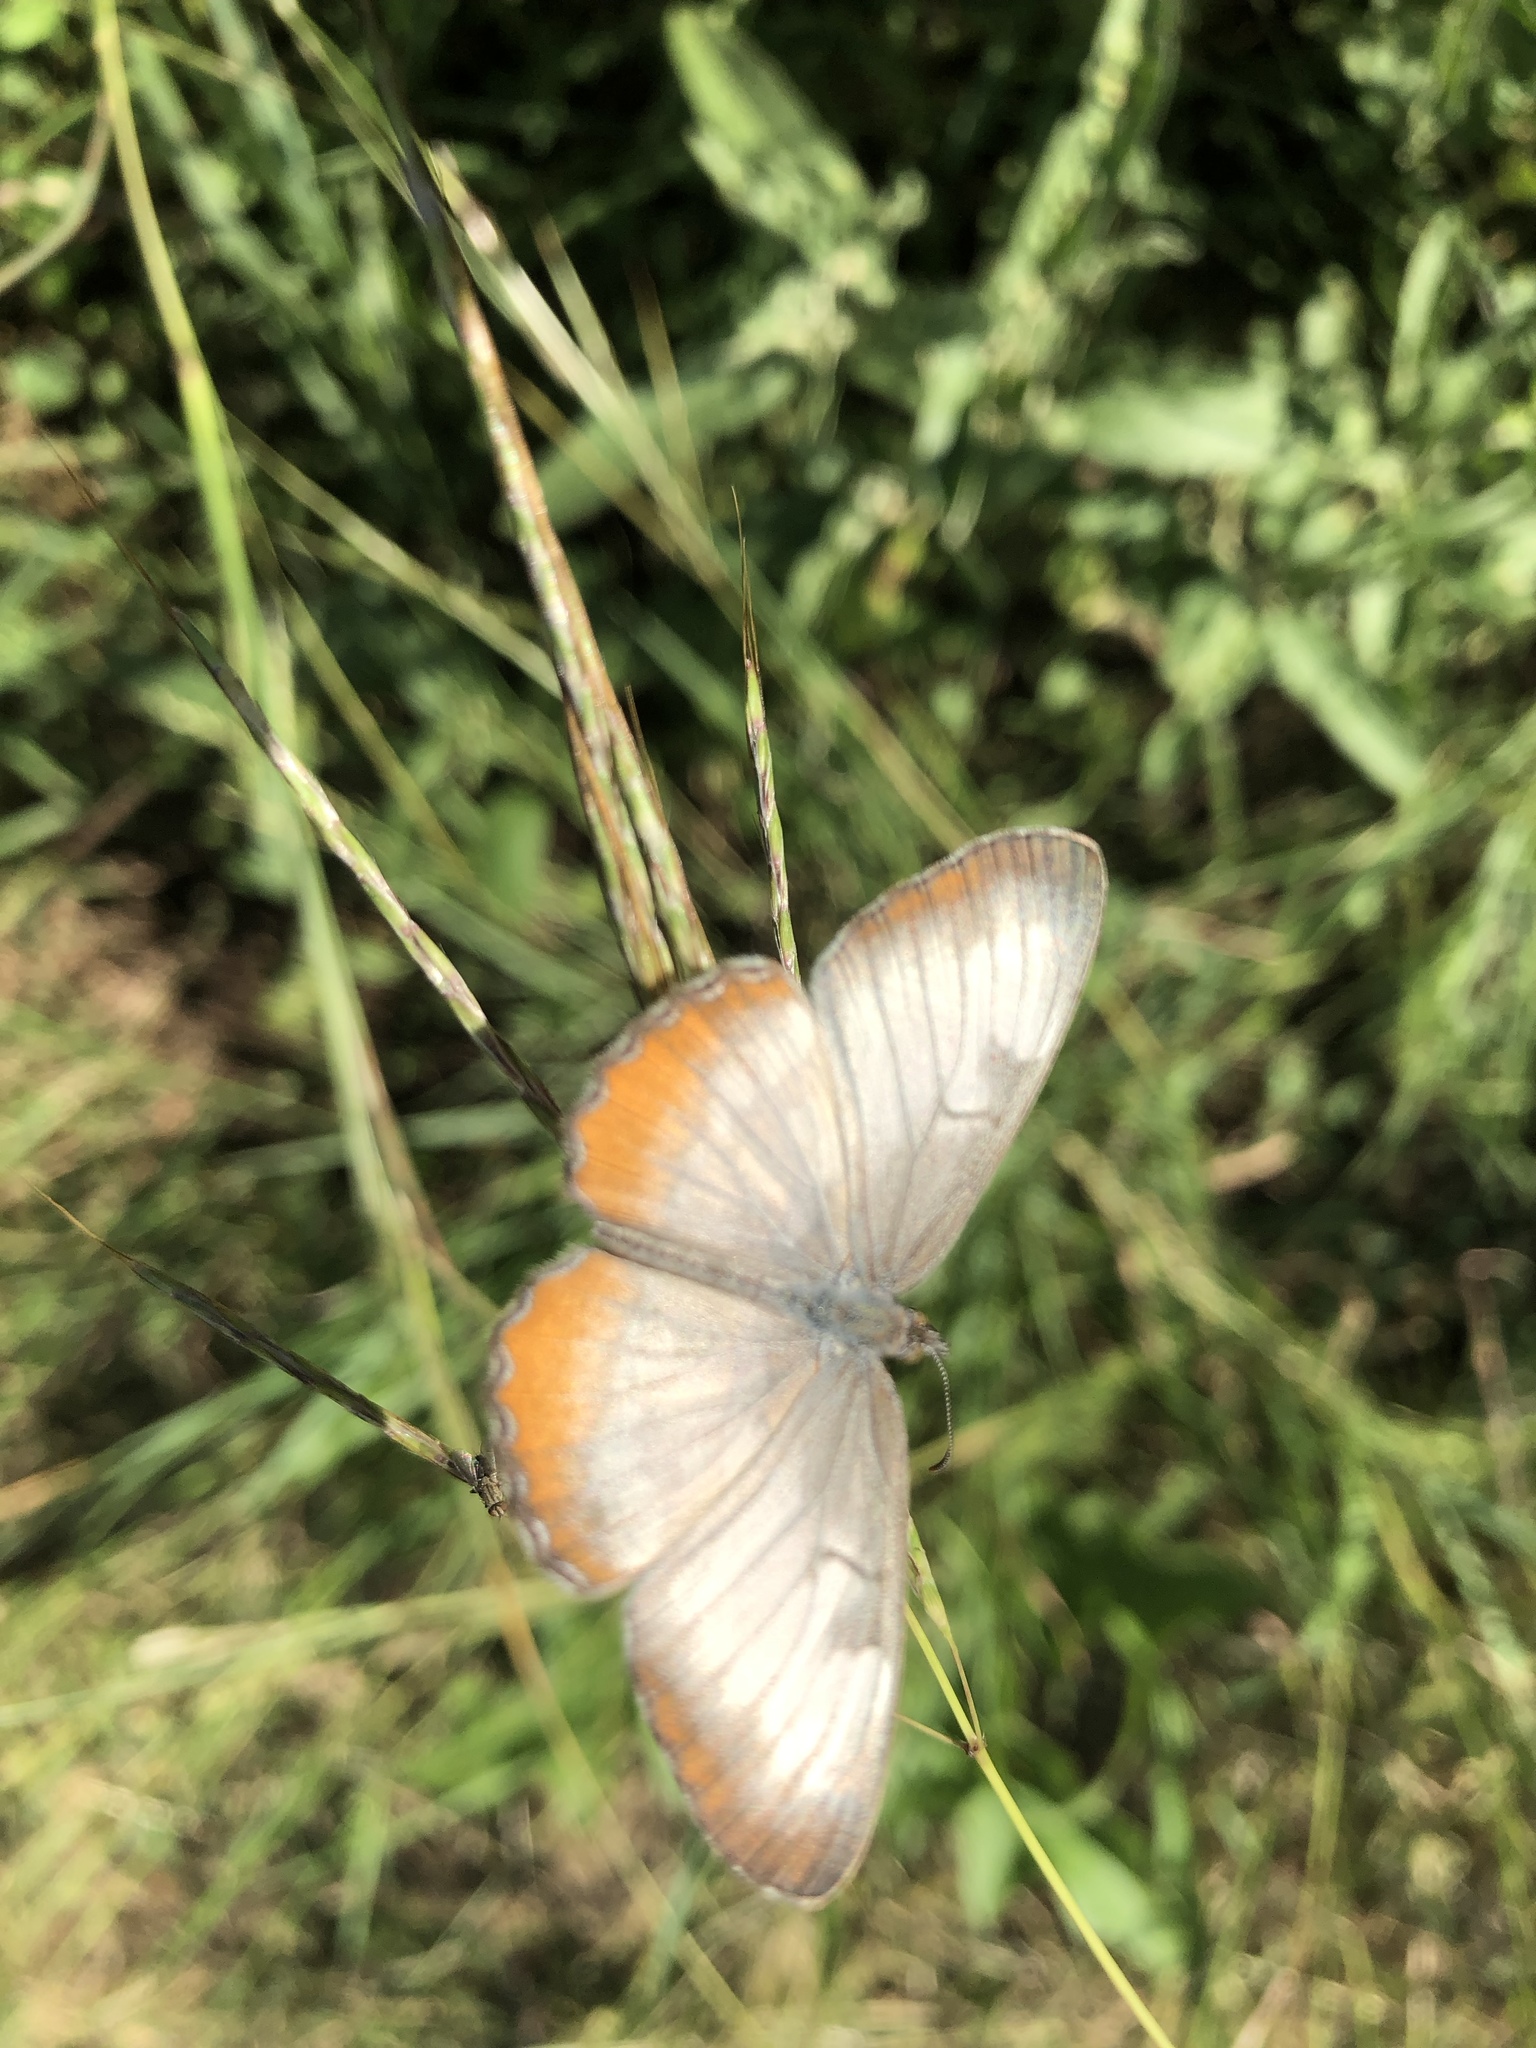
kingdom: Animalia
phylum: Arthropoda
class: Insecta
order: Lepidoptera
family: Nymphalidae
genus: Mestra
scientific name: Mestra amymone
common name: Common mestra
